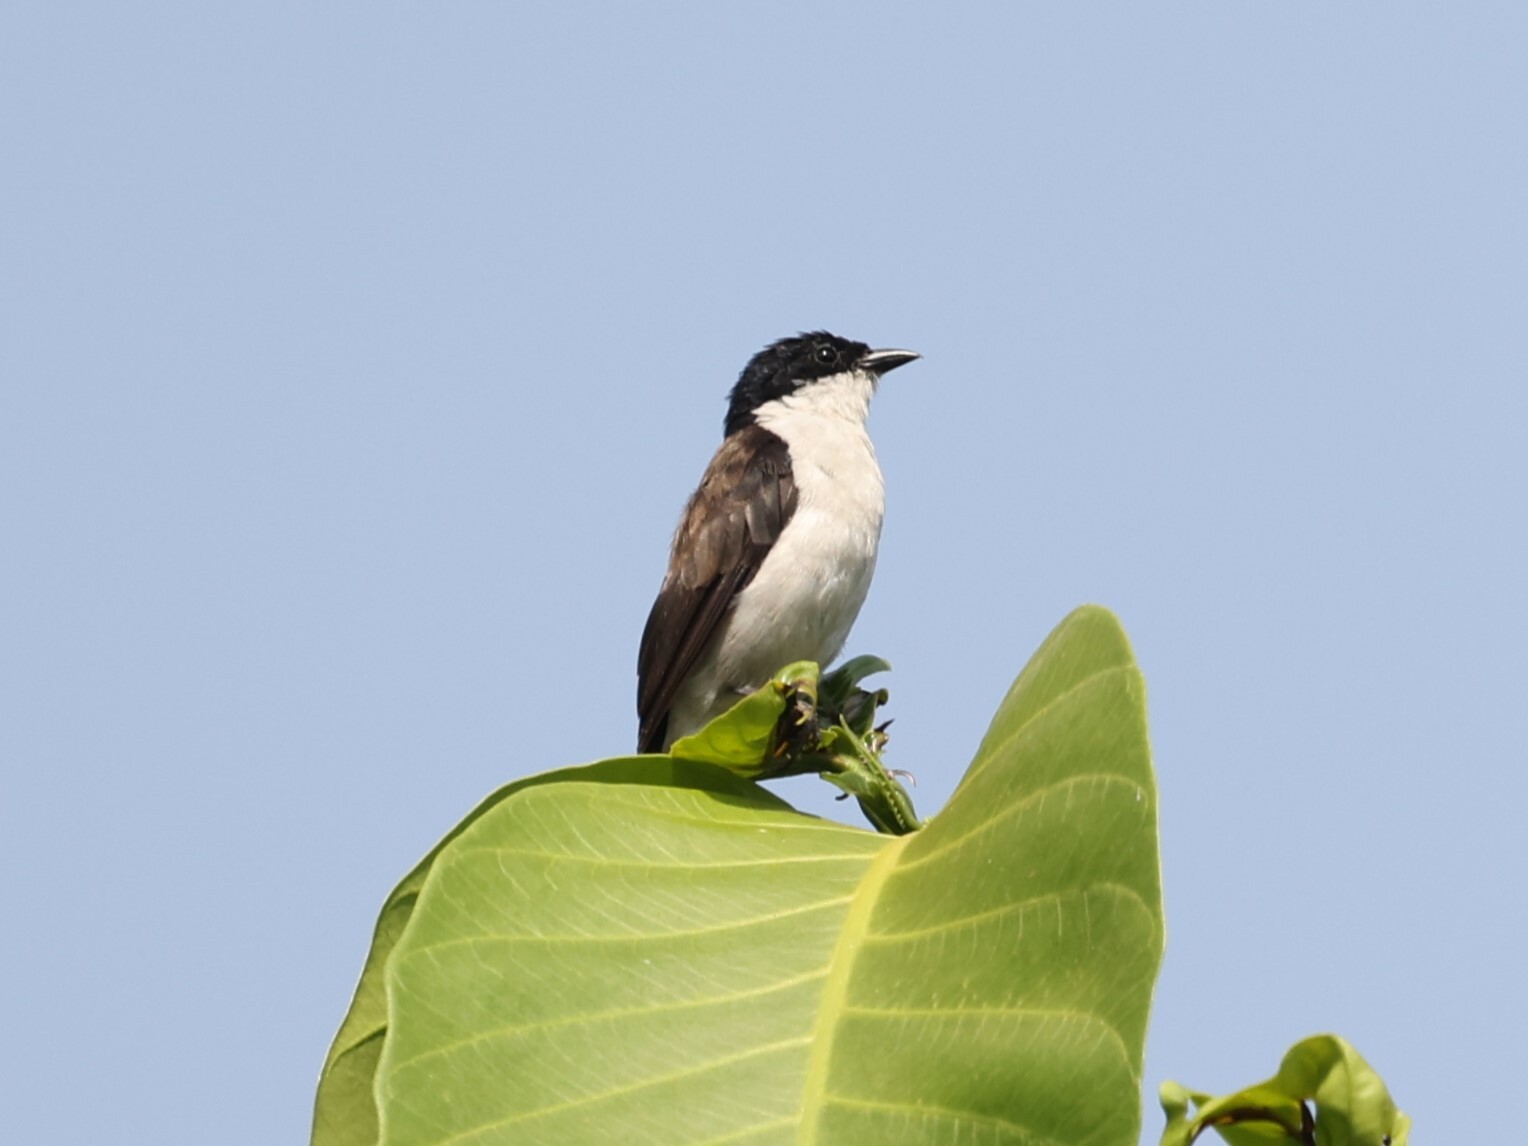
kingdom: Animalia
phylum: Chordata
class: Aves
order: Passeriformes
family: Estrildidae
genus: Nigrita
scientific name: Nigrita fusconotus
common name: White-breasted nigrita
